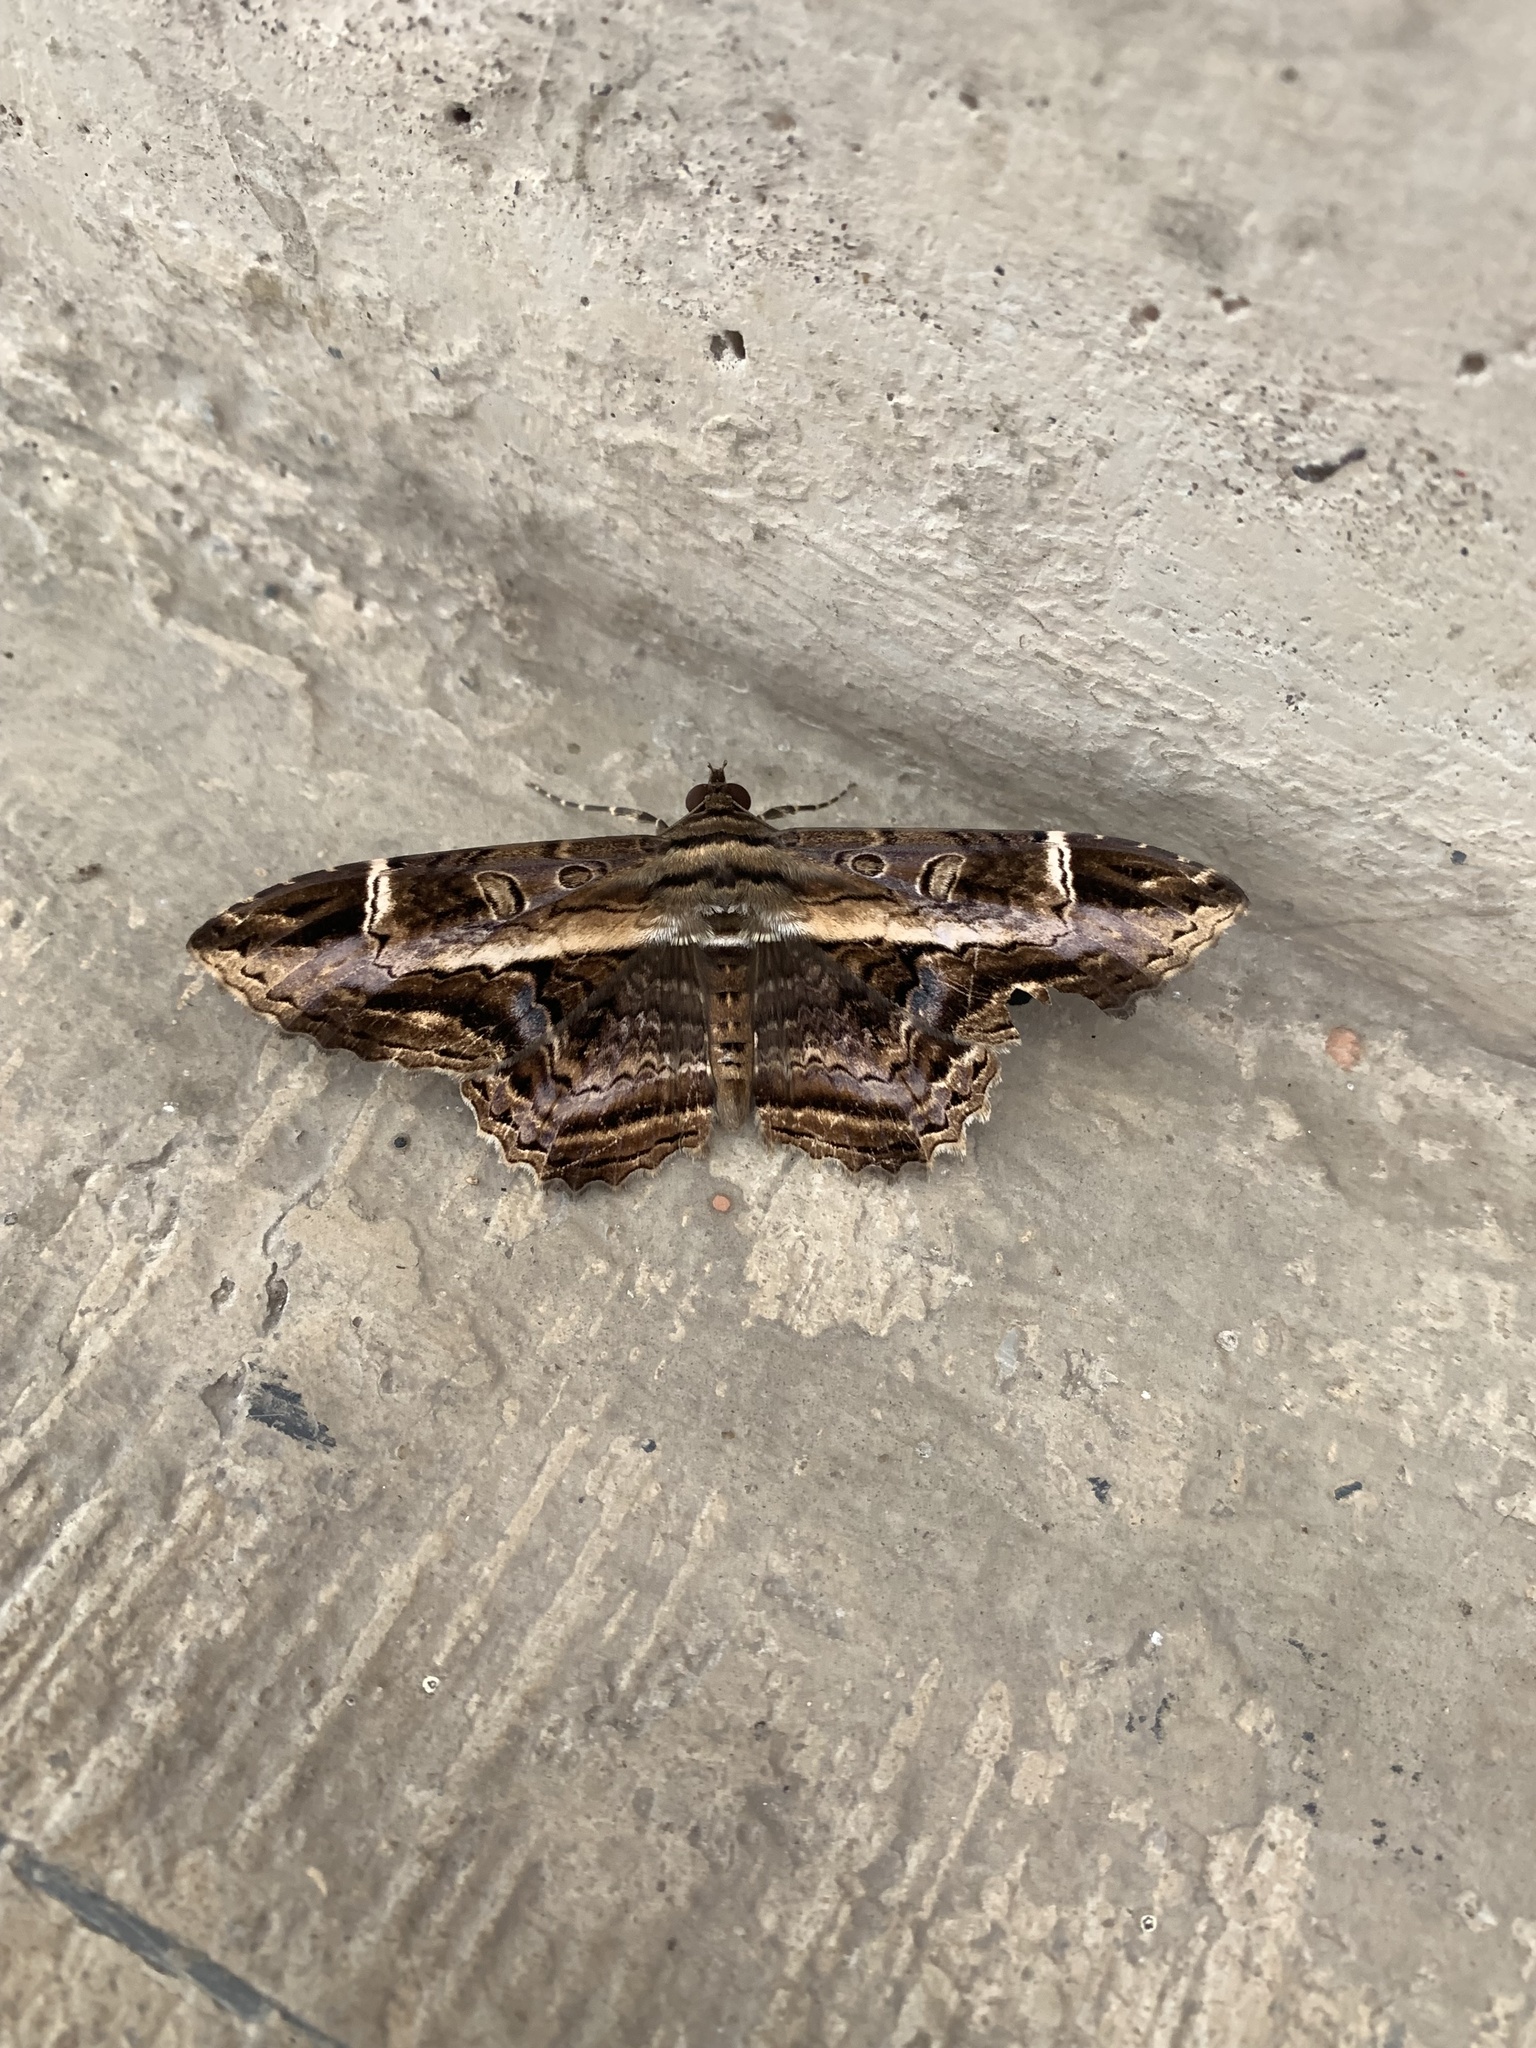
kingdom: Animalia
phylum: Arthropoda
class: Insecta
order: Lepidoptera
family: Noctuidae
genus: Ronania
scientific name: Ronania
